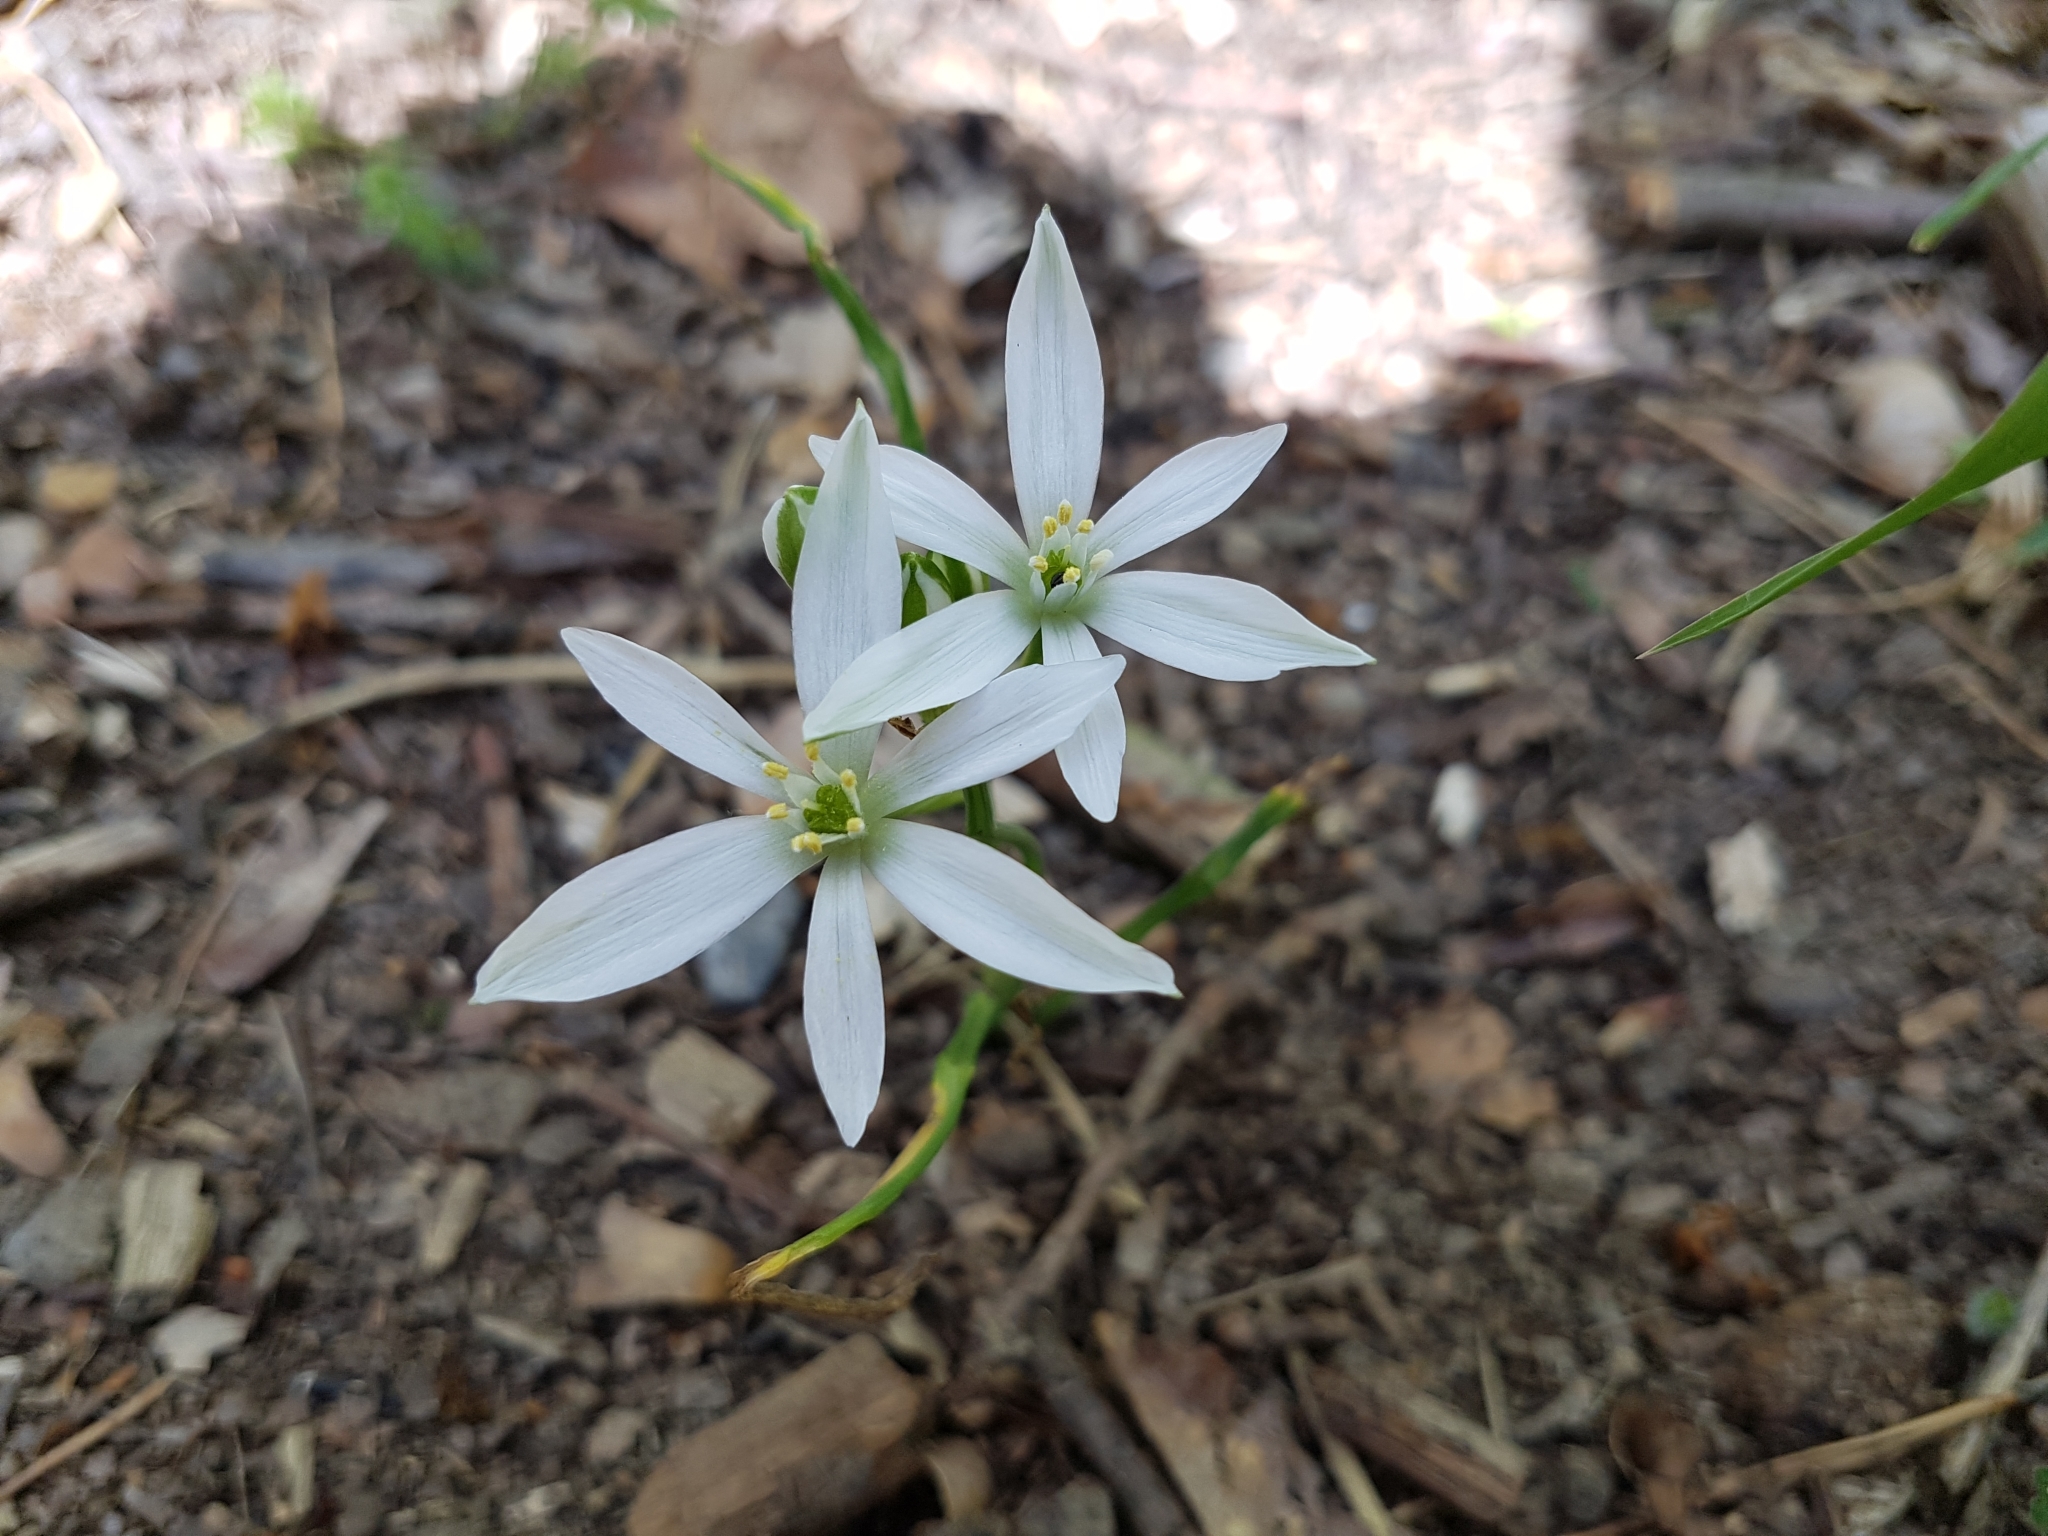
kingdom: Plantae
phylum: Tracheophyta
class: Liliopsida
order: Asparagales
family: Asparagaceae
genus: Ornithogalum
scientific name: Ornithogalum umbellatum
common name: Garden star-of-bethlehem
